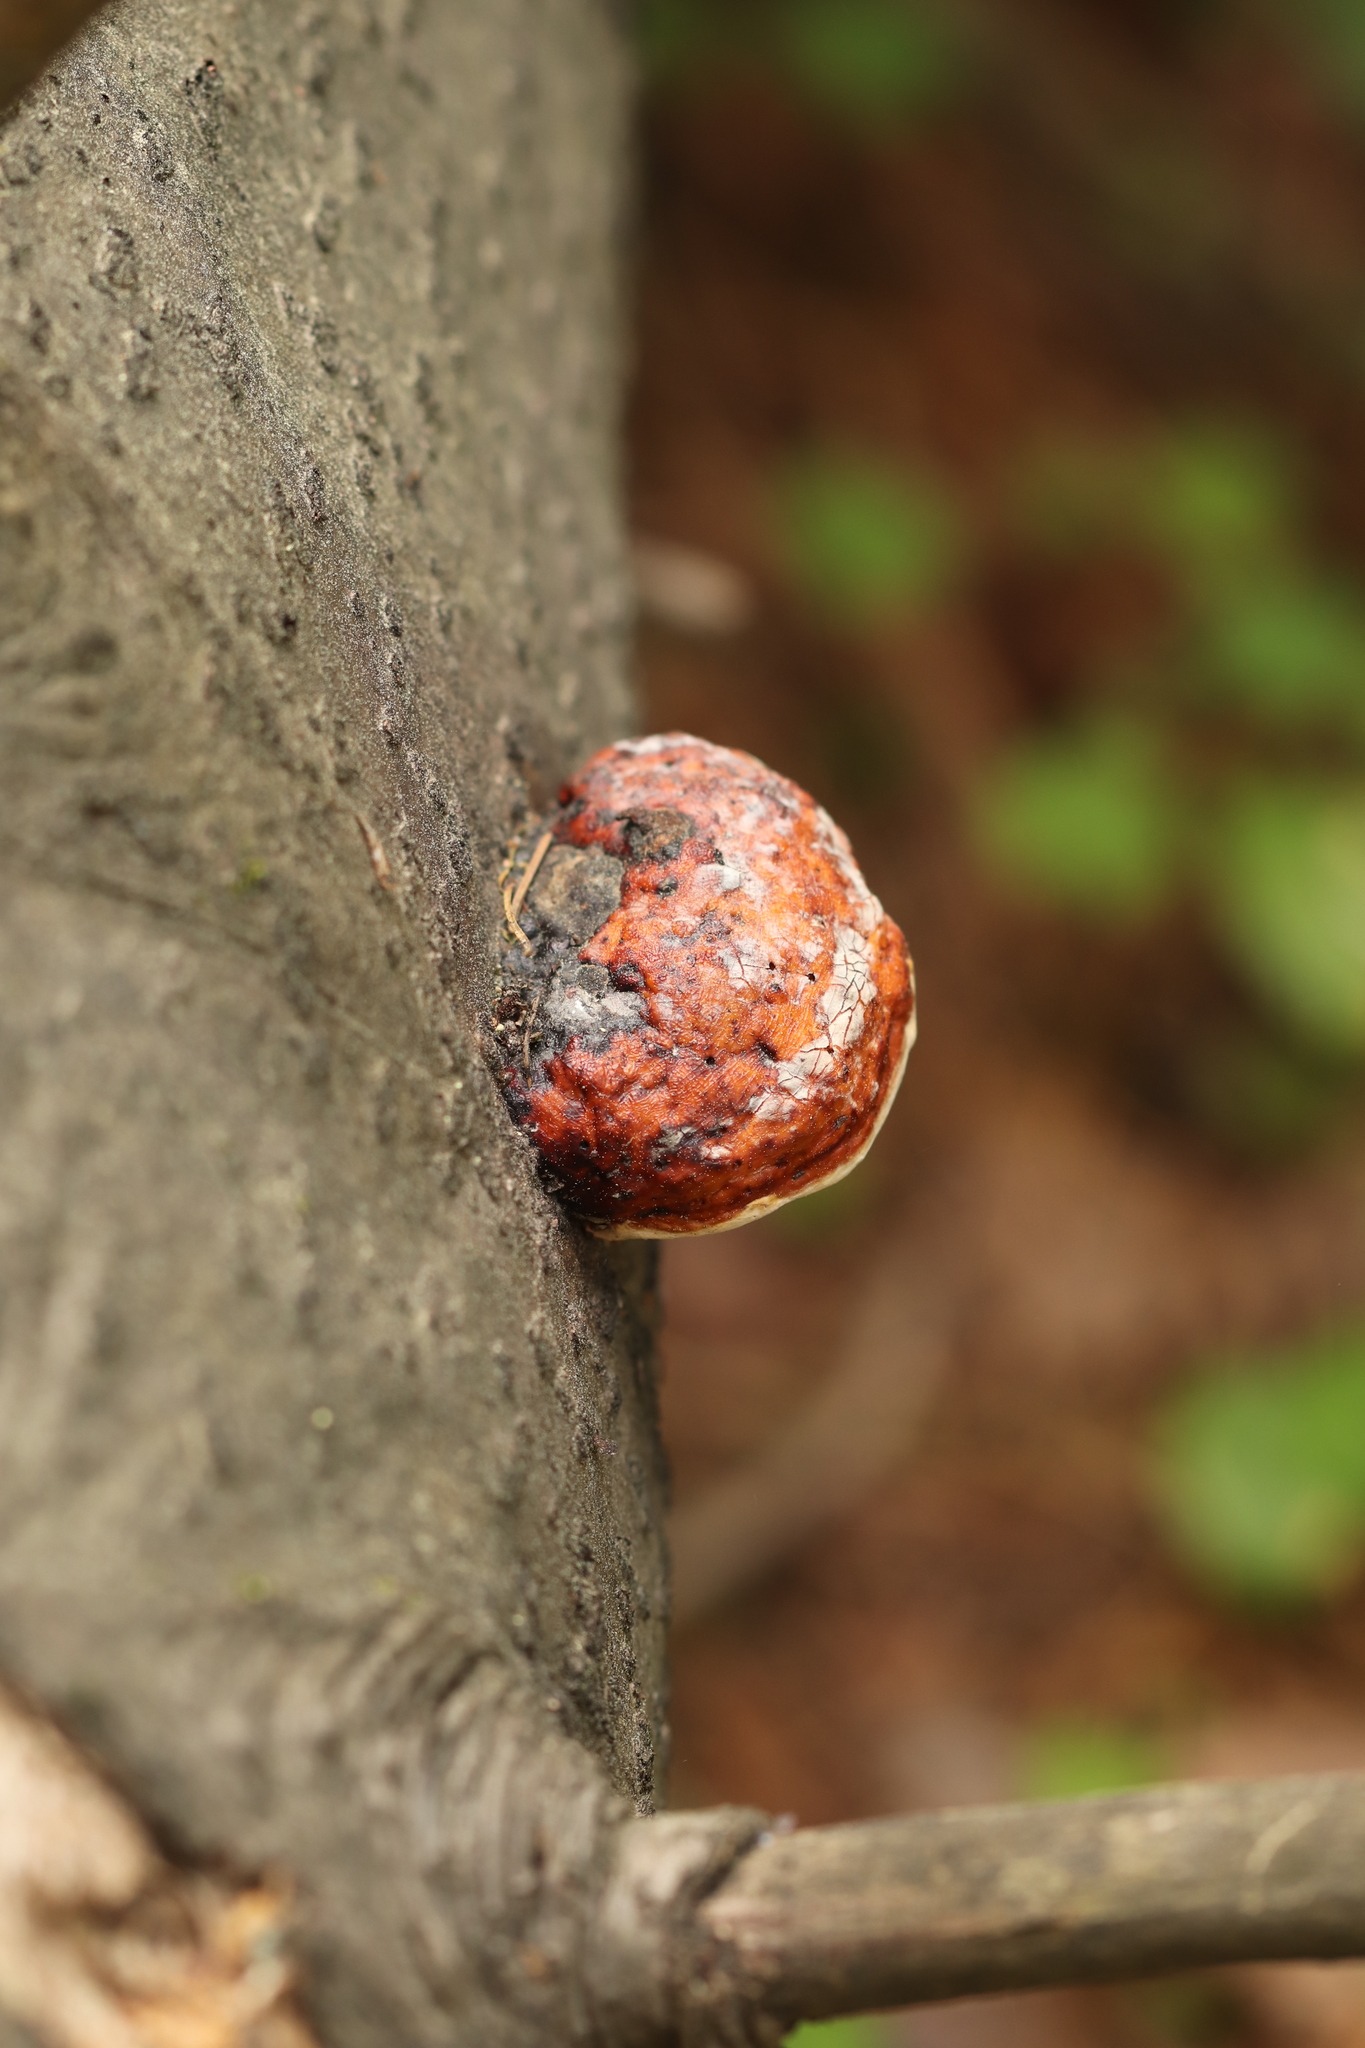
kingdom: Fungi
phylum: Basidiomycota
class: Agaricomycetes
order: Polyporales
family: Fomitopsidaceae
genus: Fomitopsis
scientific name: Fomitopsis pinicola
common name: Red-belted bracket
